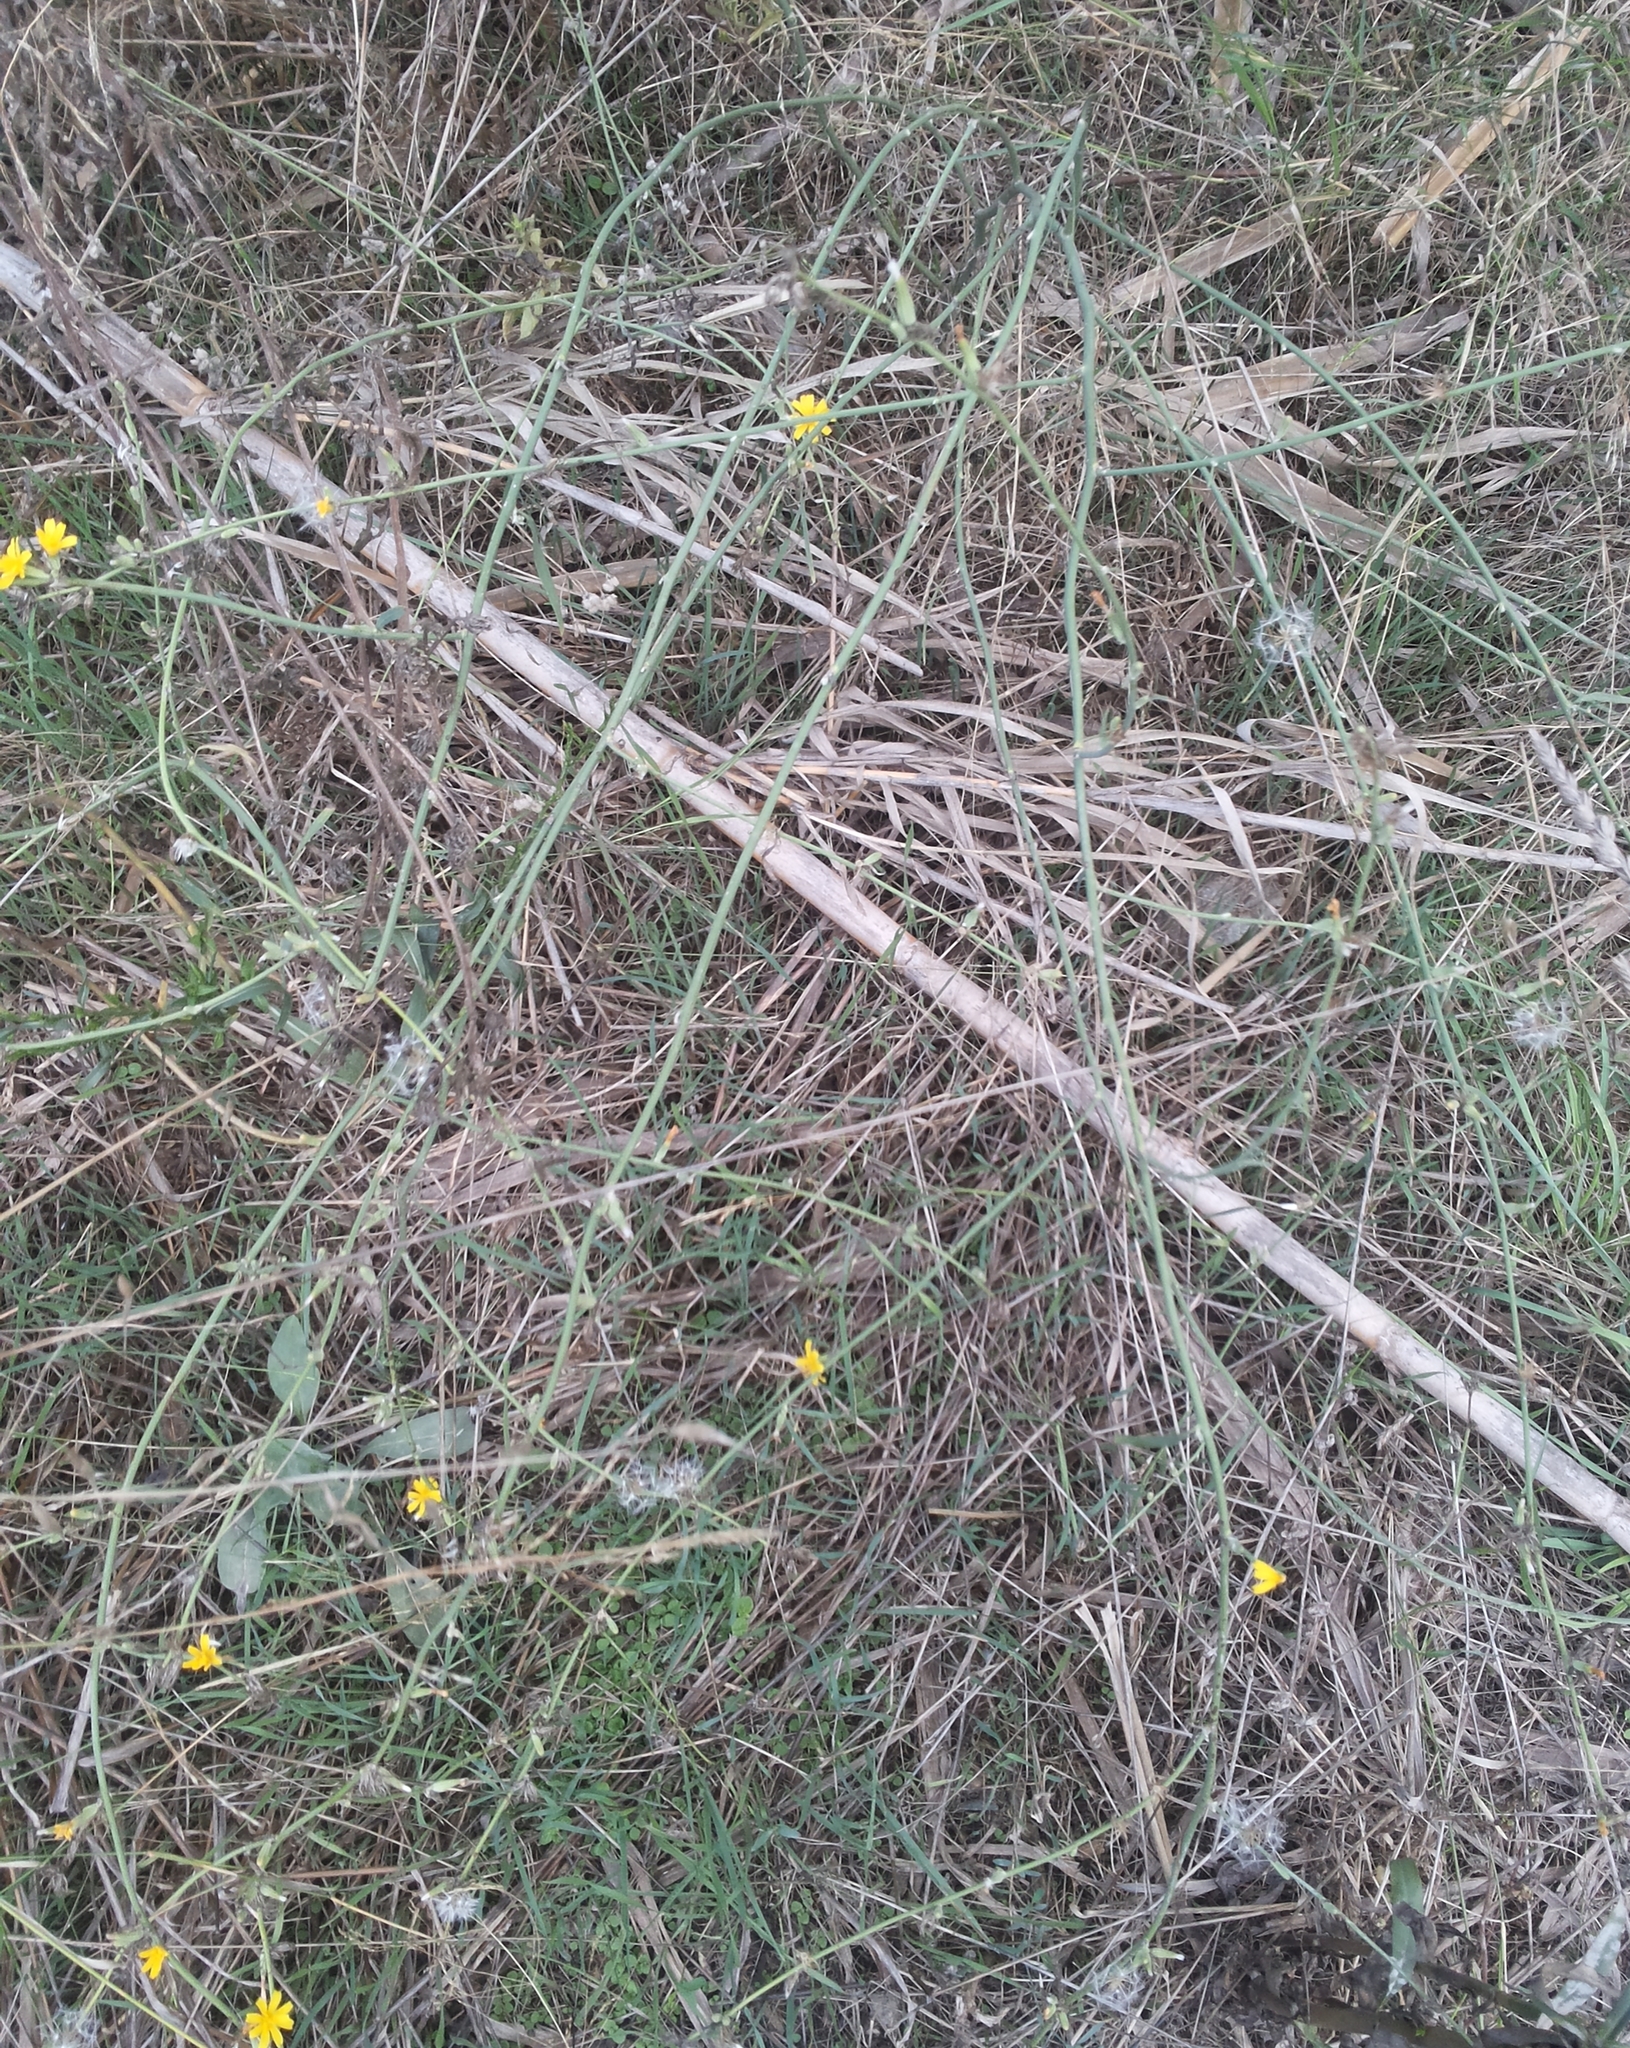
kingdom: Plantae
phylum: Tracheophyta
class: Magnoliopsida
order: Asterales
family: Asteraceae
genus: Chondrilla
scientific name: Chondrilla juncea
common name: Skeleton weed
